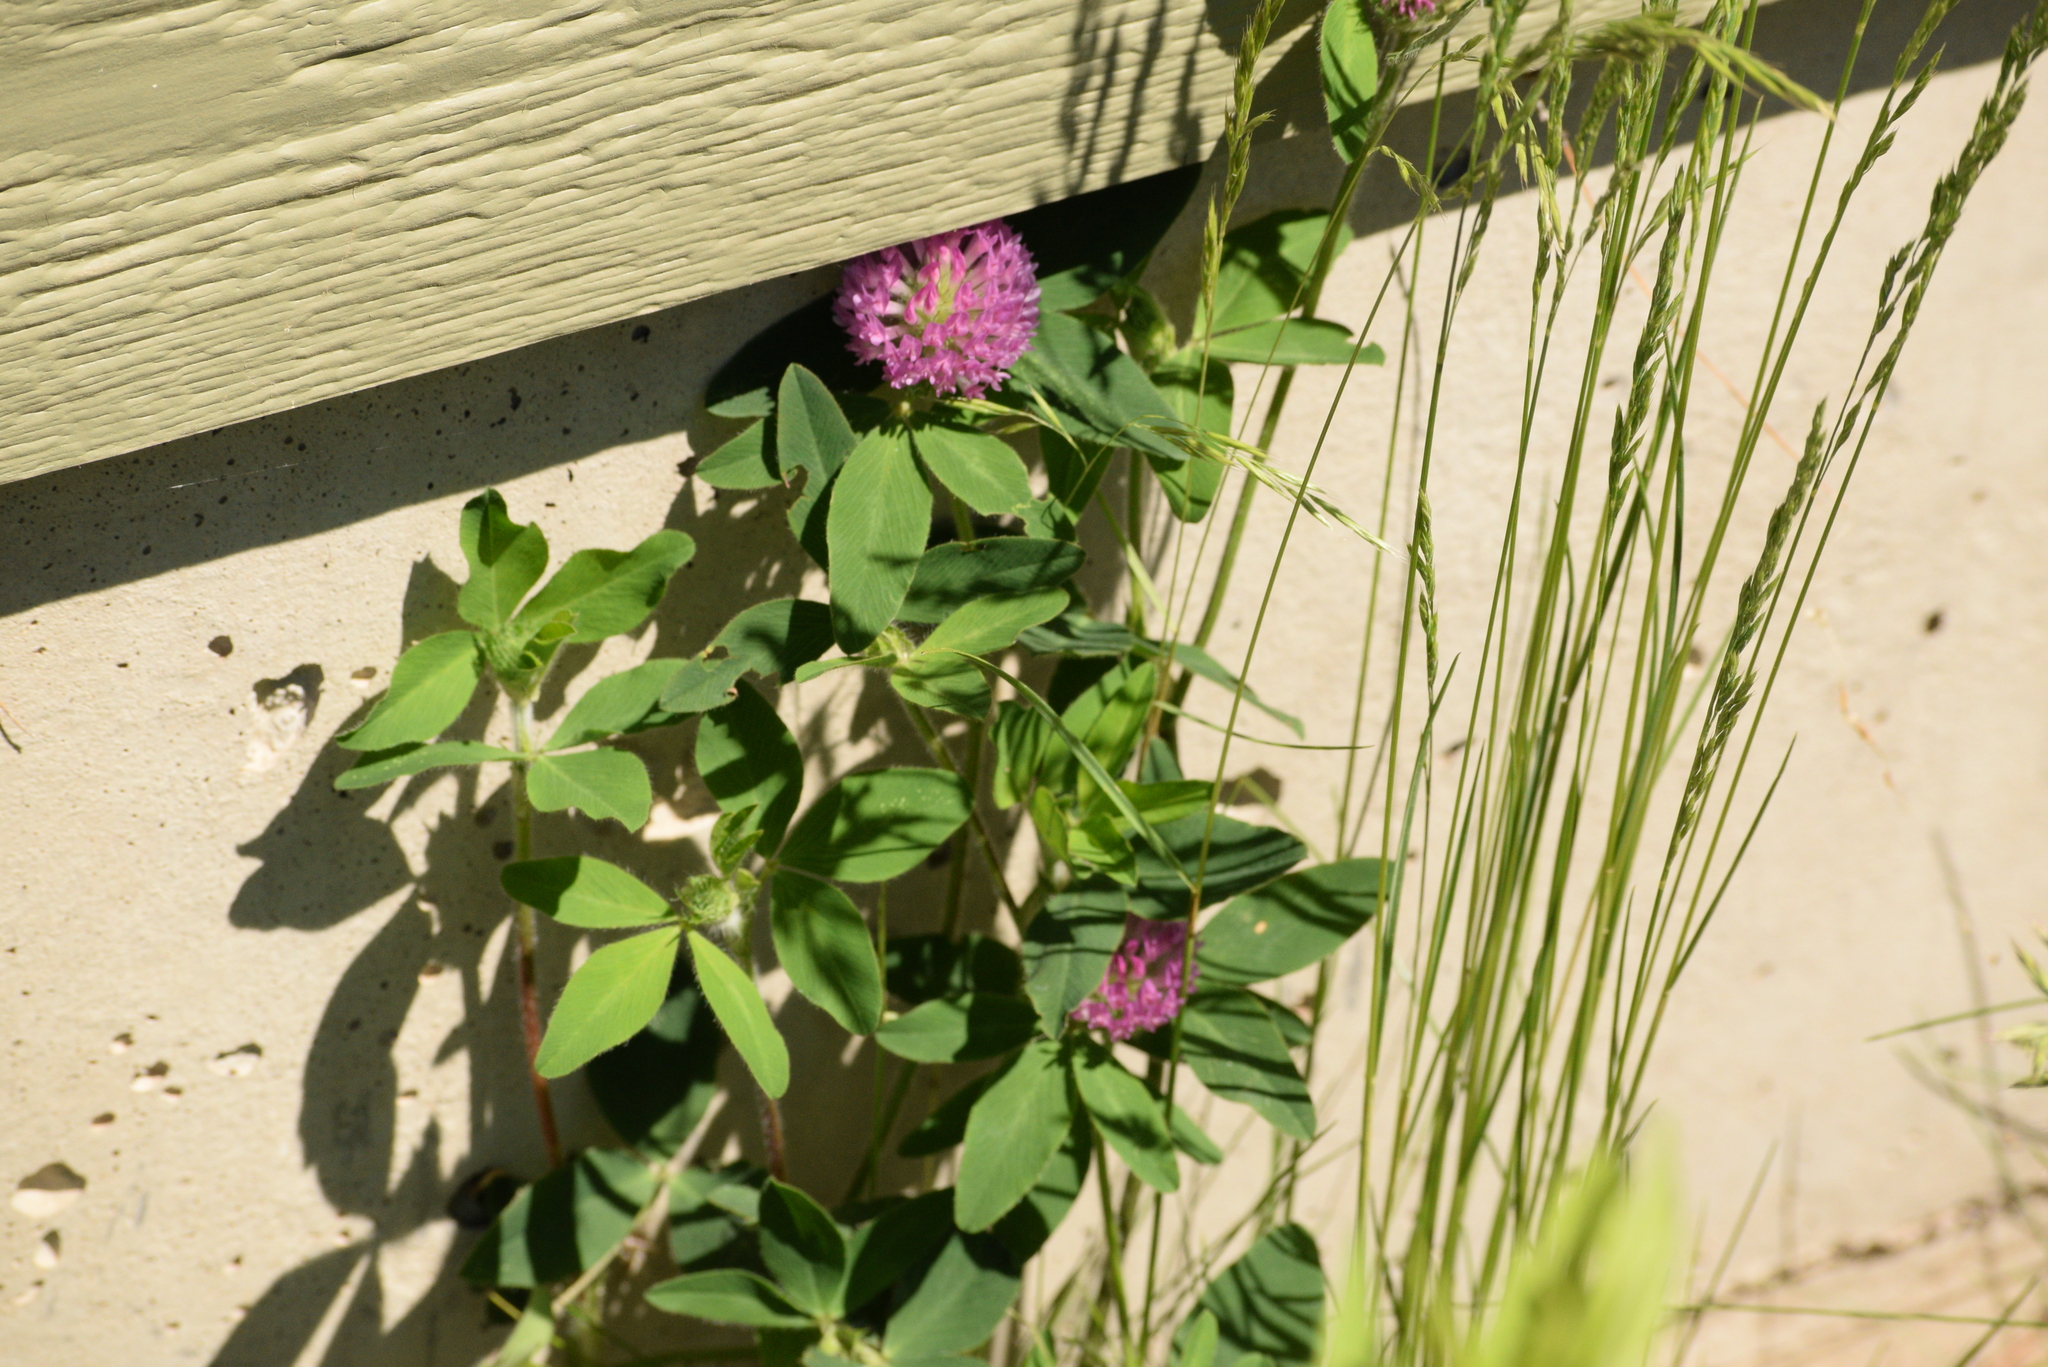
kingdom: Plantae
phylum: Tracheophyta
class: Magnoliopsida
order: Fabales
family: Fabaceae
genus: Trifolium
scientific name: Trifolium pratense
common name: Red clover
